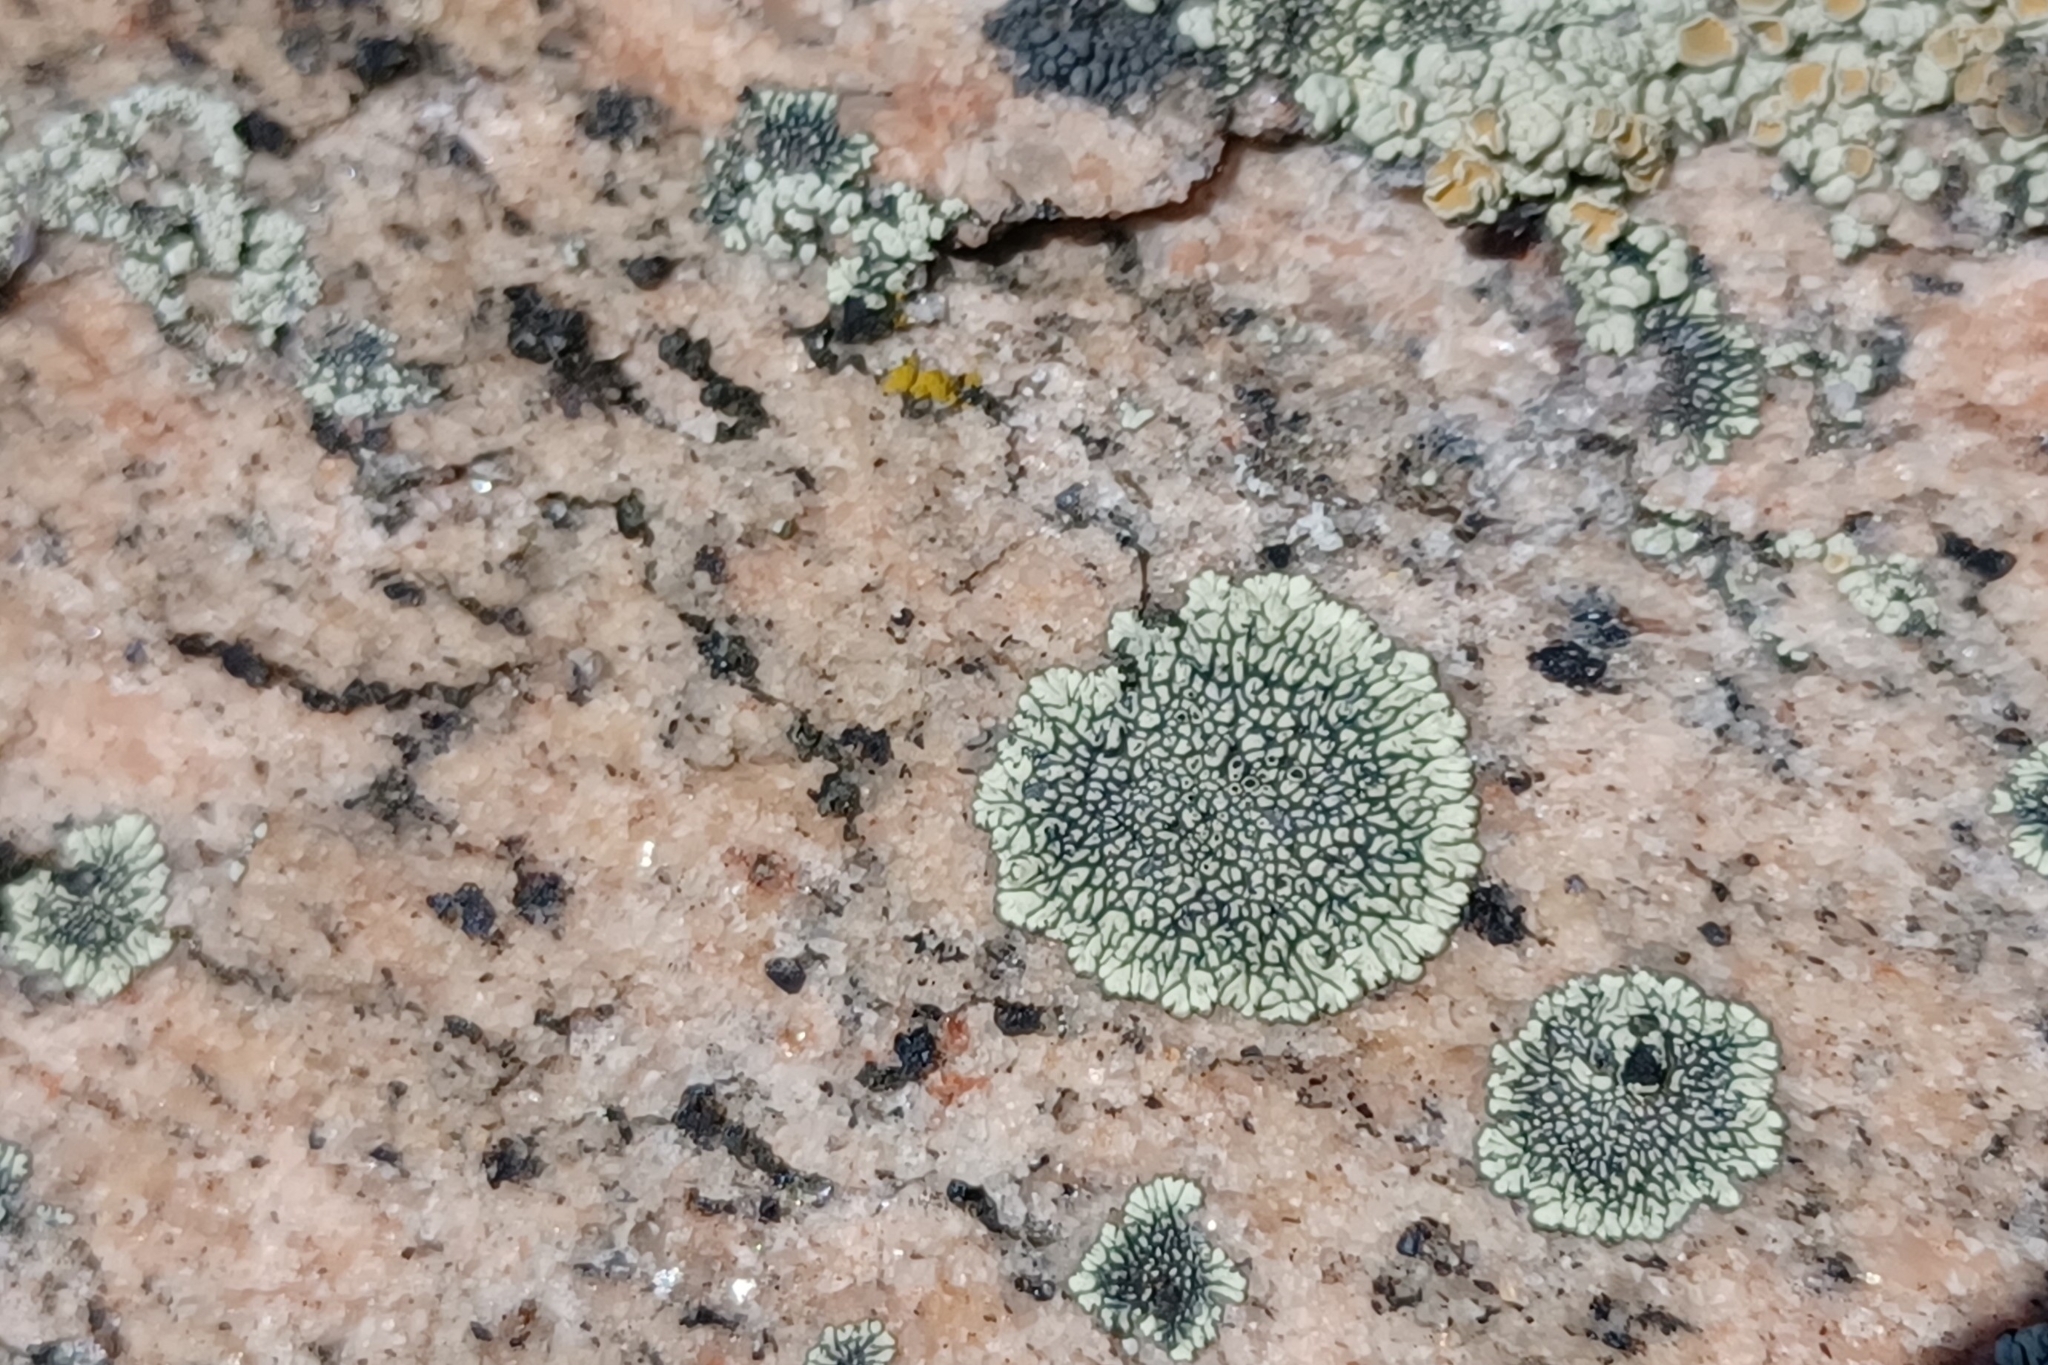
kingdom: Fungi
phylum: Ascomycota
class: Lecanoromycetes
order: Caliciales
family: Caliciaceae
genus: Dimelaena
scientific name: Dimelaena oreina
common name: Golden moonglow lichen
